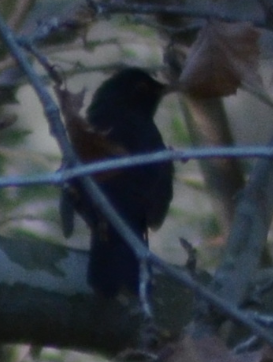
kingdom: Animalia
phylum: Chordata
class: Aves
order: Passeriformes
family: Turdidae
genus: Turdus
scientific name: Turdus merula
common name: Common blackbird
